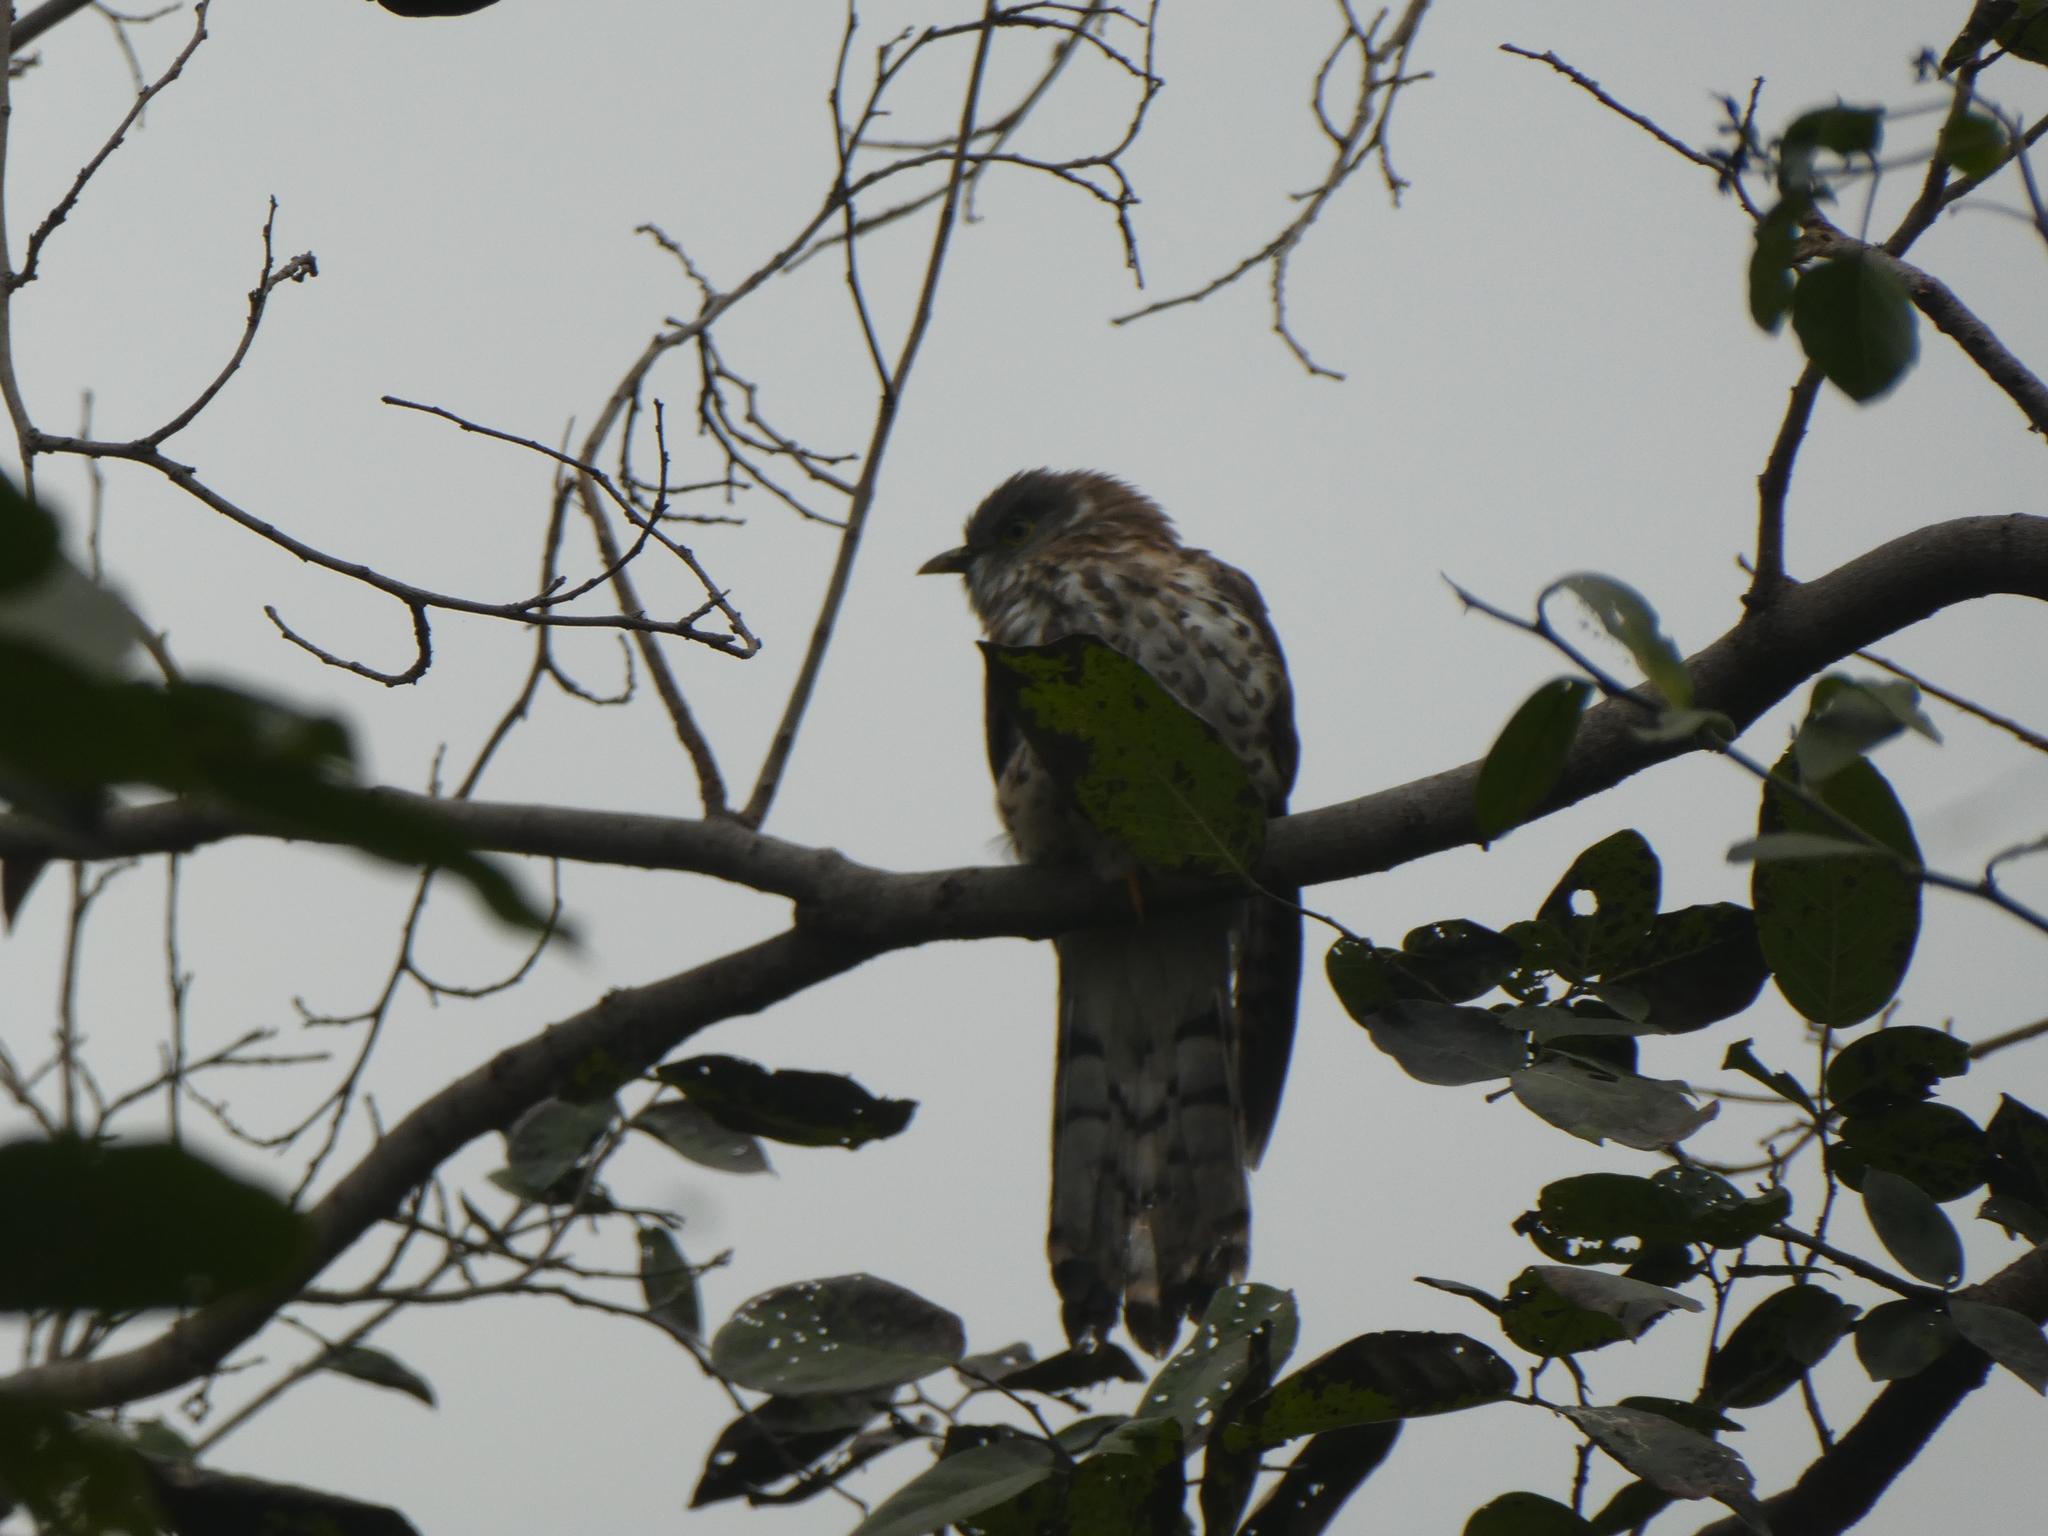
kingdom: Animalia
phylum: Chordata
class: Aves
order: Cuculiformes
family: Cuculidae
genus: Cuculus
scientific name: Cuculus varius
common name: Common hawk cuckoo
